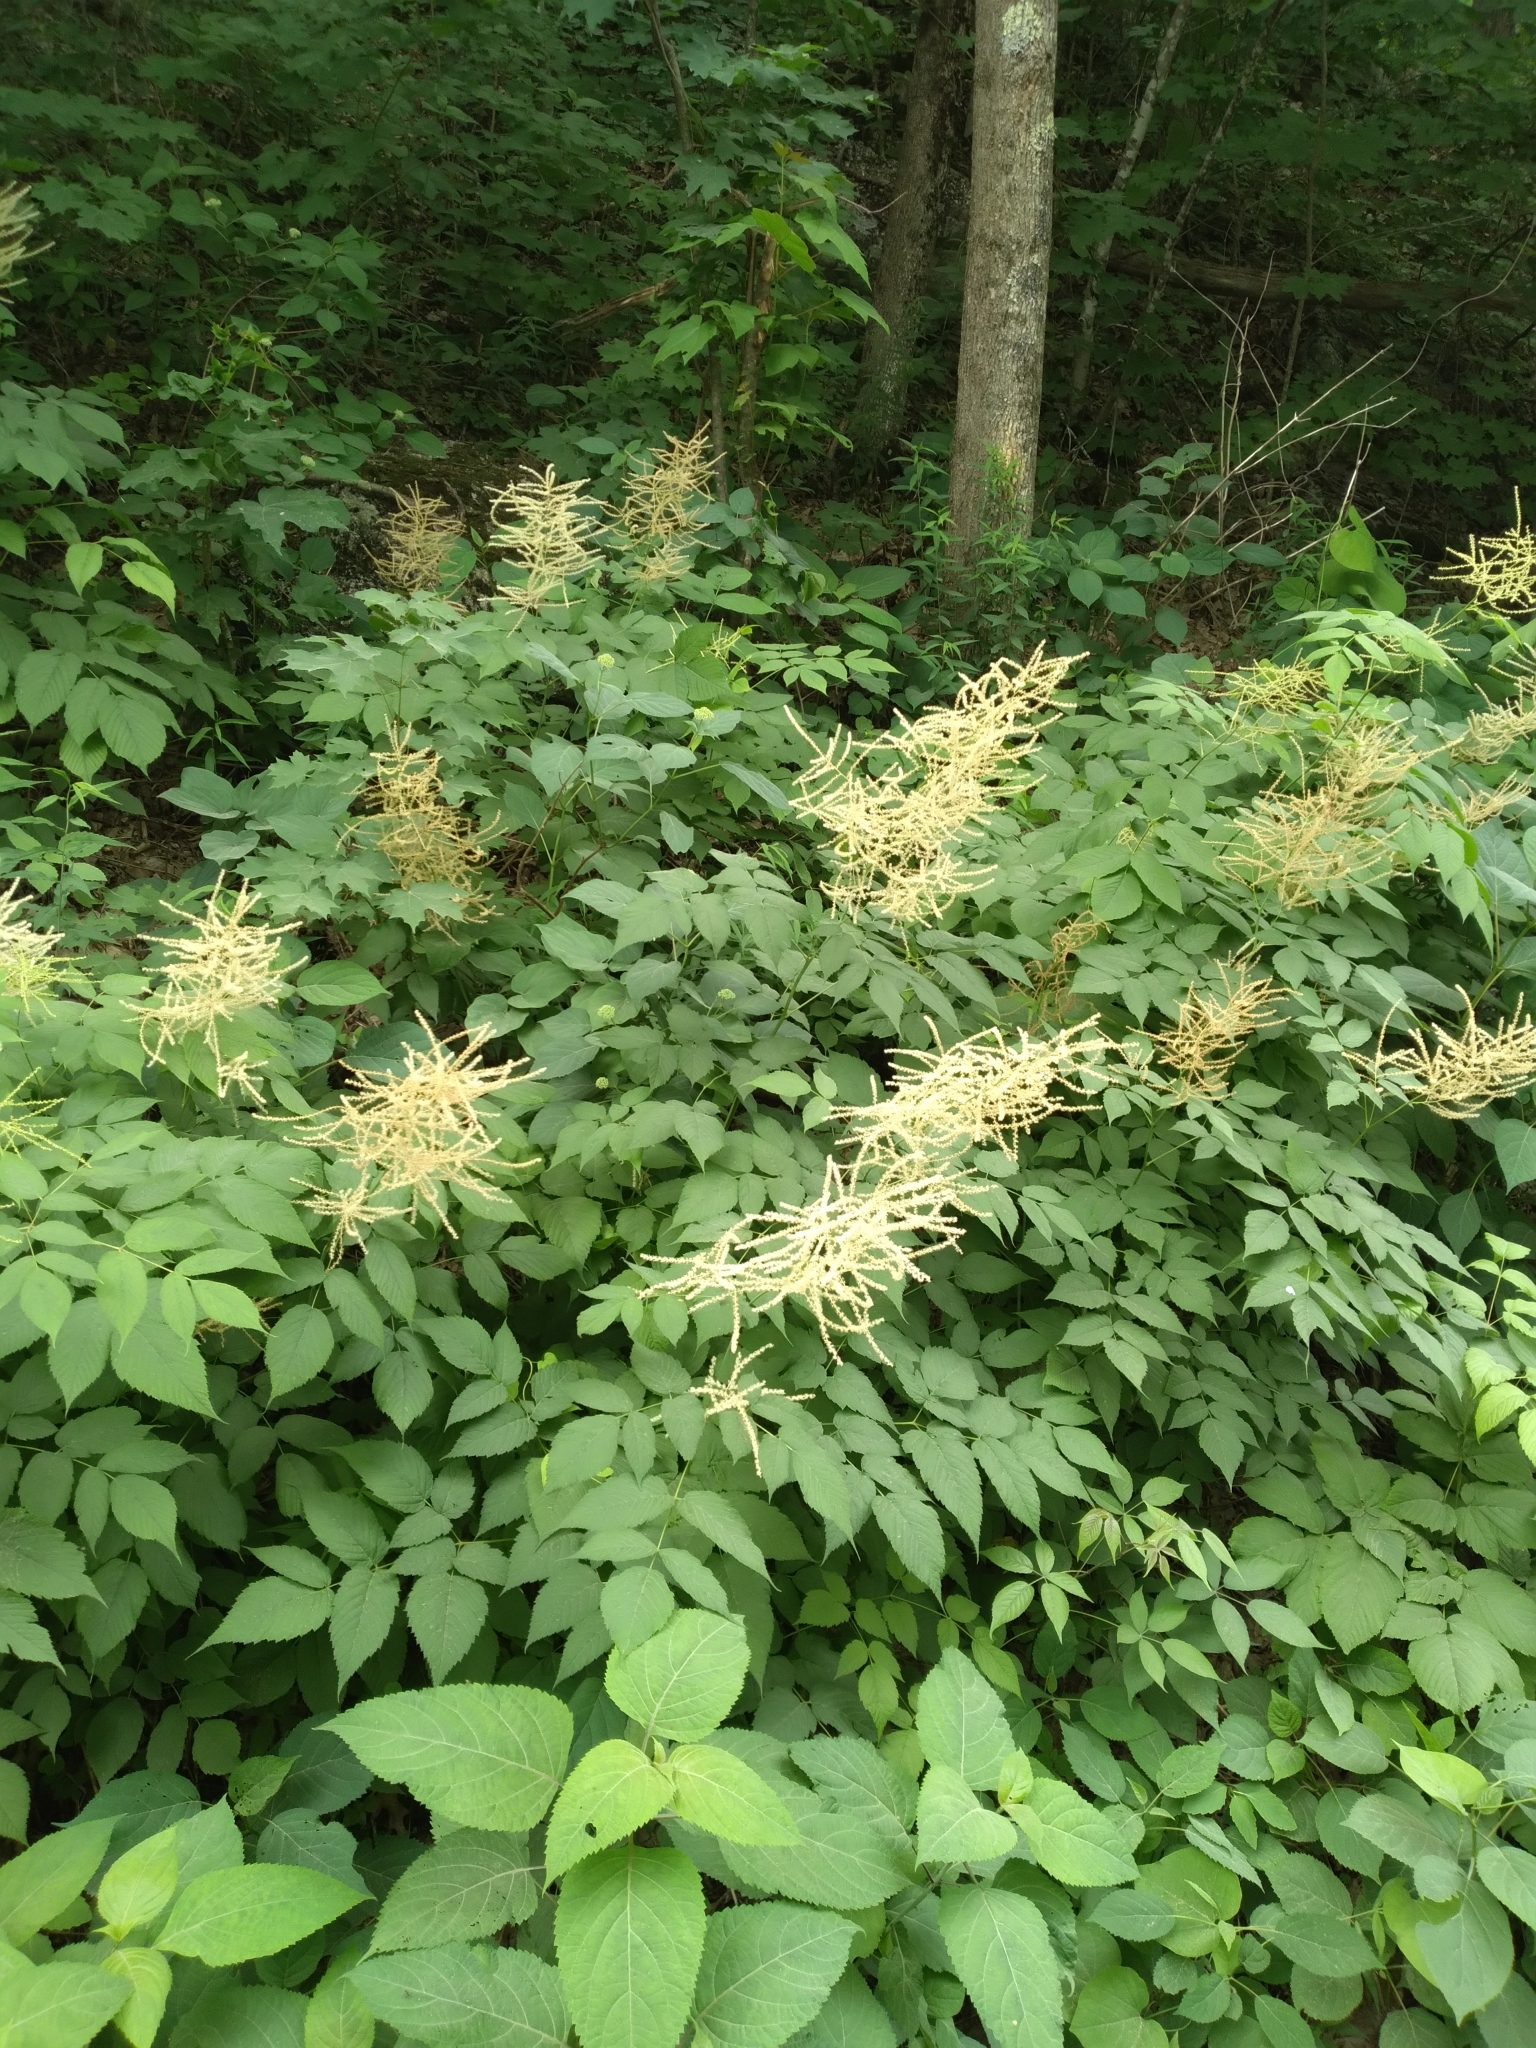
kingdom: Plantae
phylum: Tracheophyta
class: Magnoliopsida
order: Rosales
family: Rosaceae
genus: Aruncus
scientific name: Aruncus dioicus
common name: Buck's-beard
